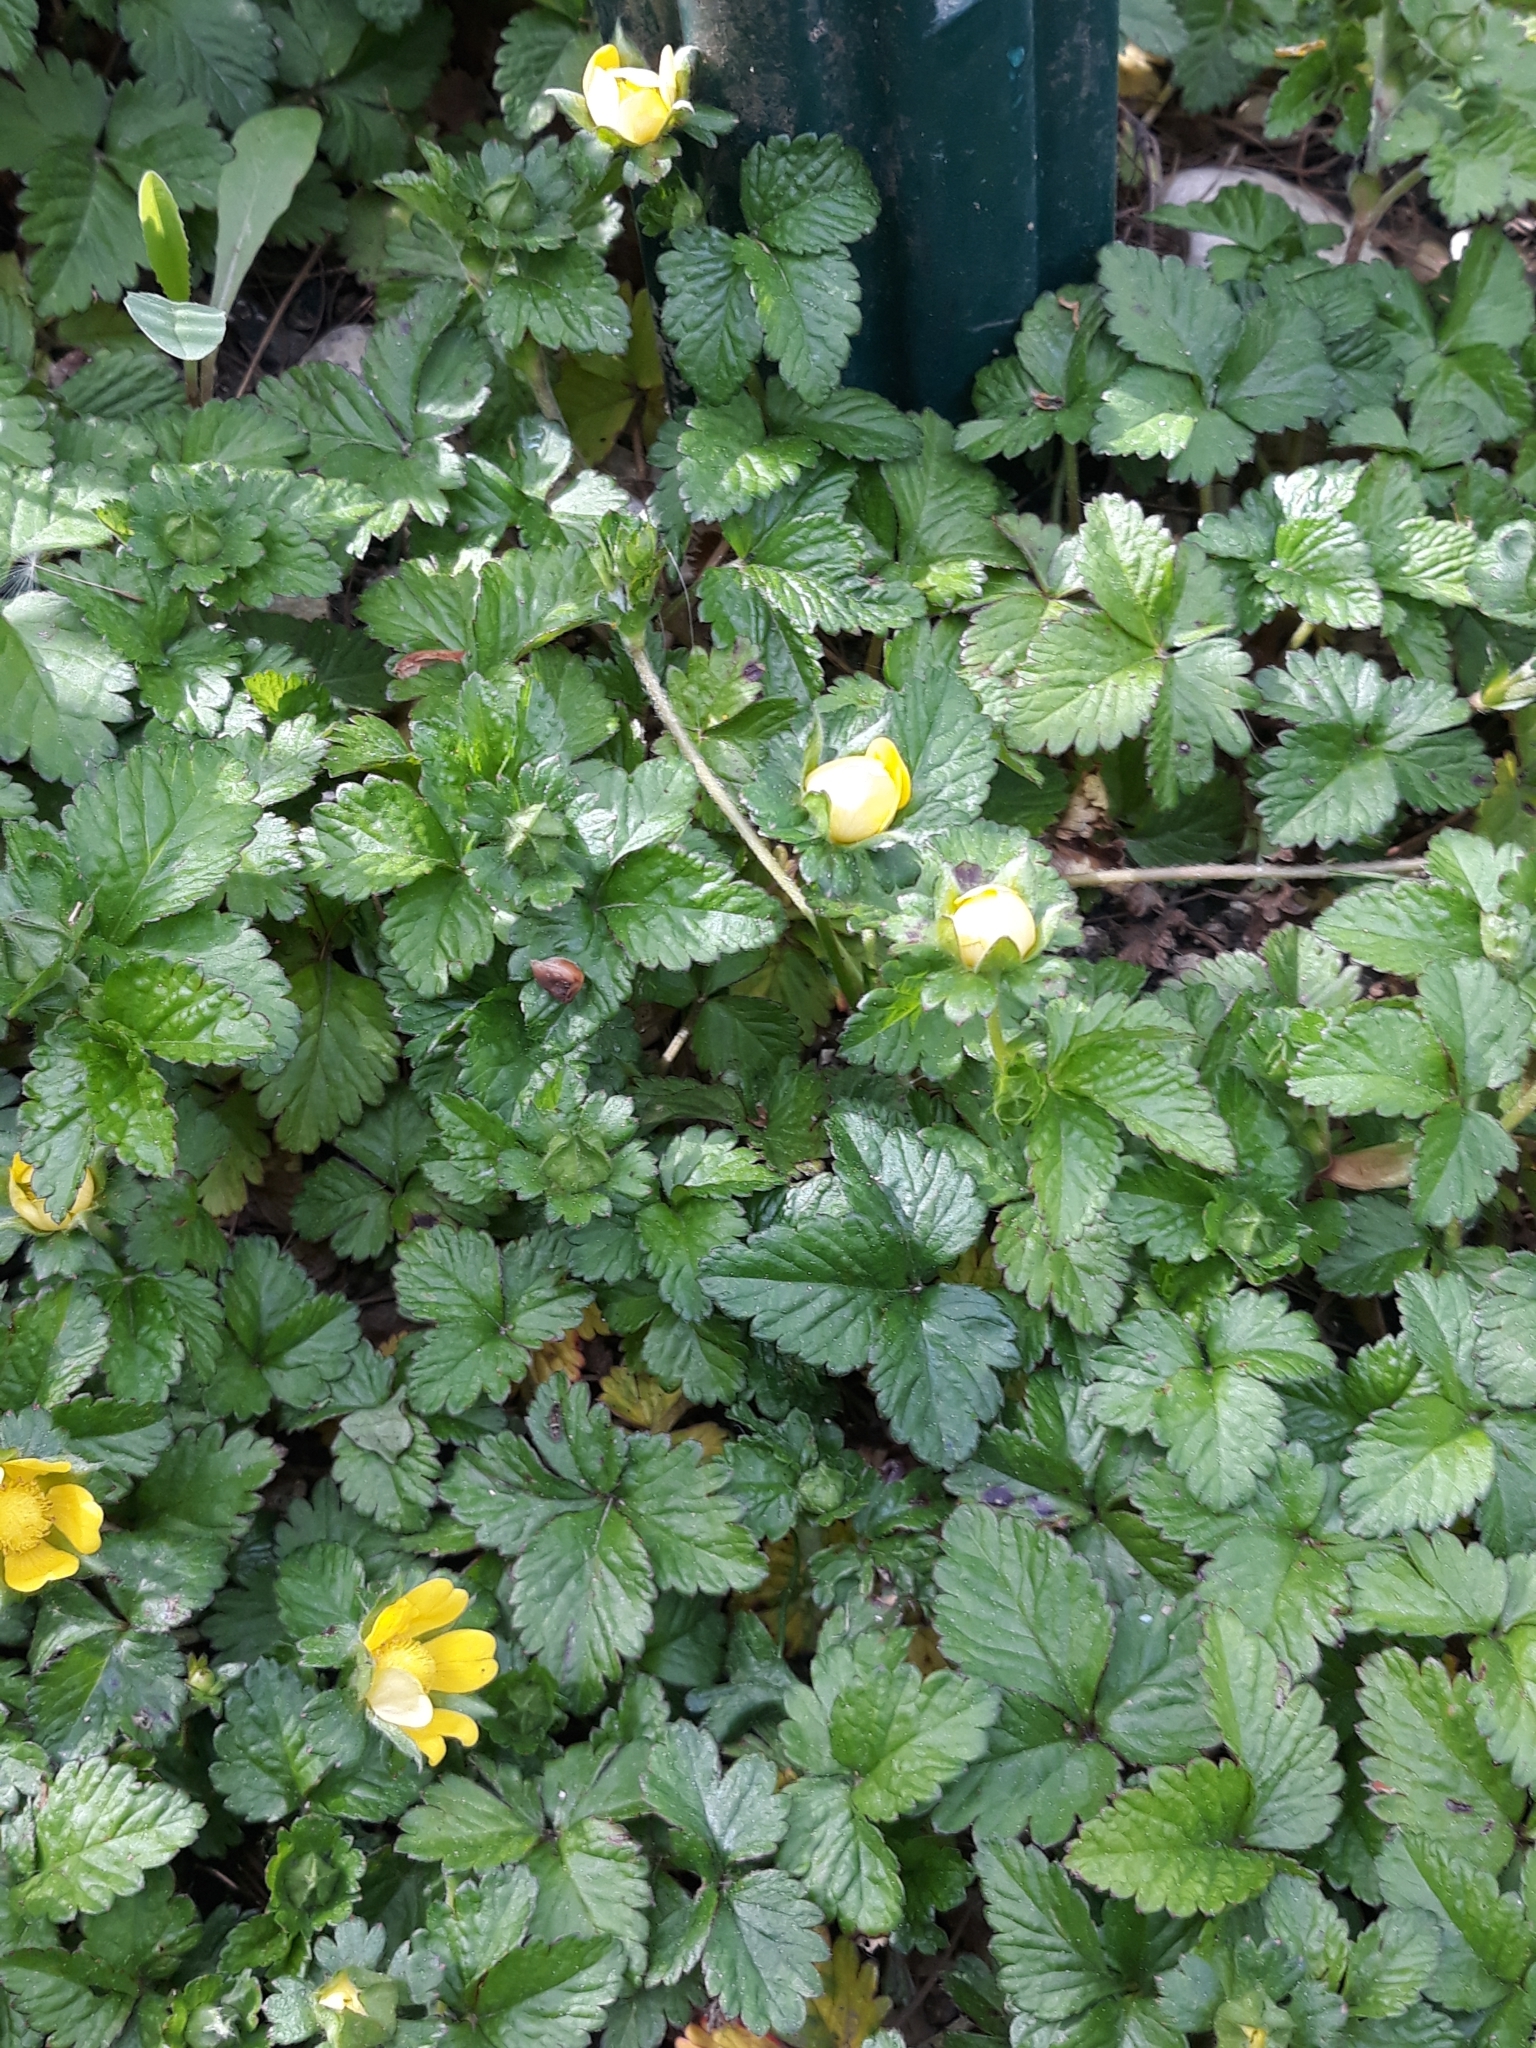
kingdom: Plantae
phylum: Tracheophyta
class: Magnoliopsida
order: Rosales
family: Rosaceae
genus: Potentilla
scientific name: Potentilla indica
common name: Yellow-flowered strawberry
